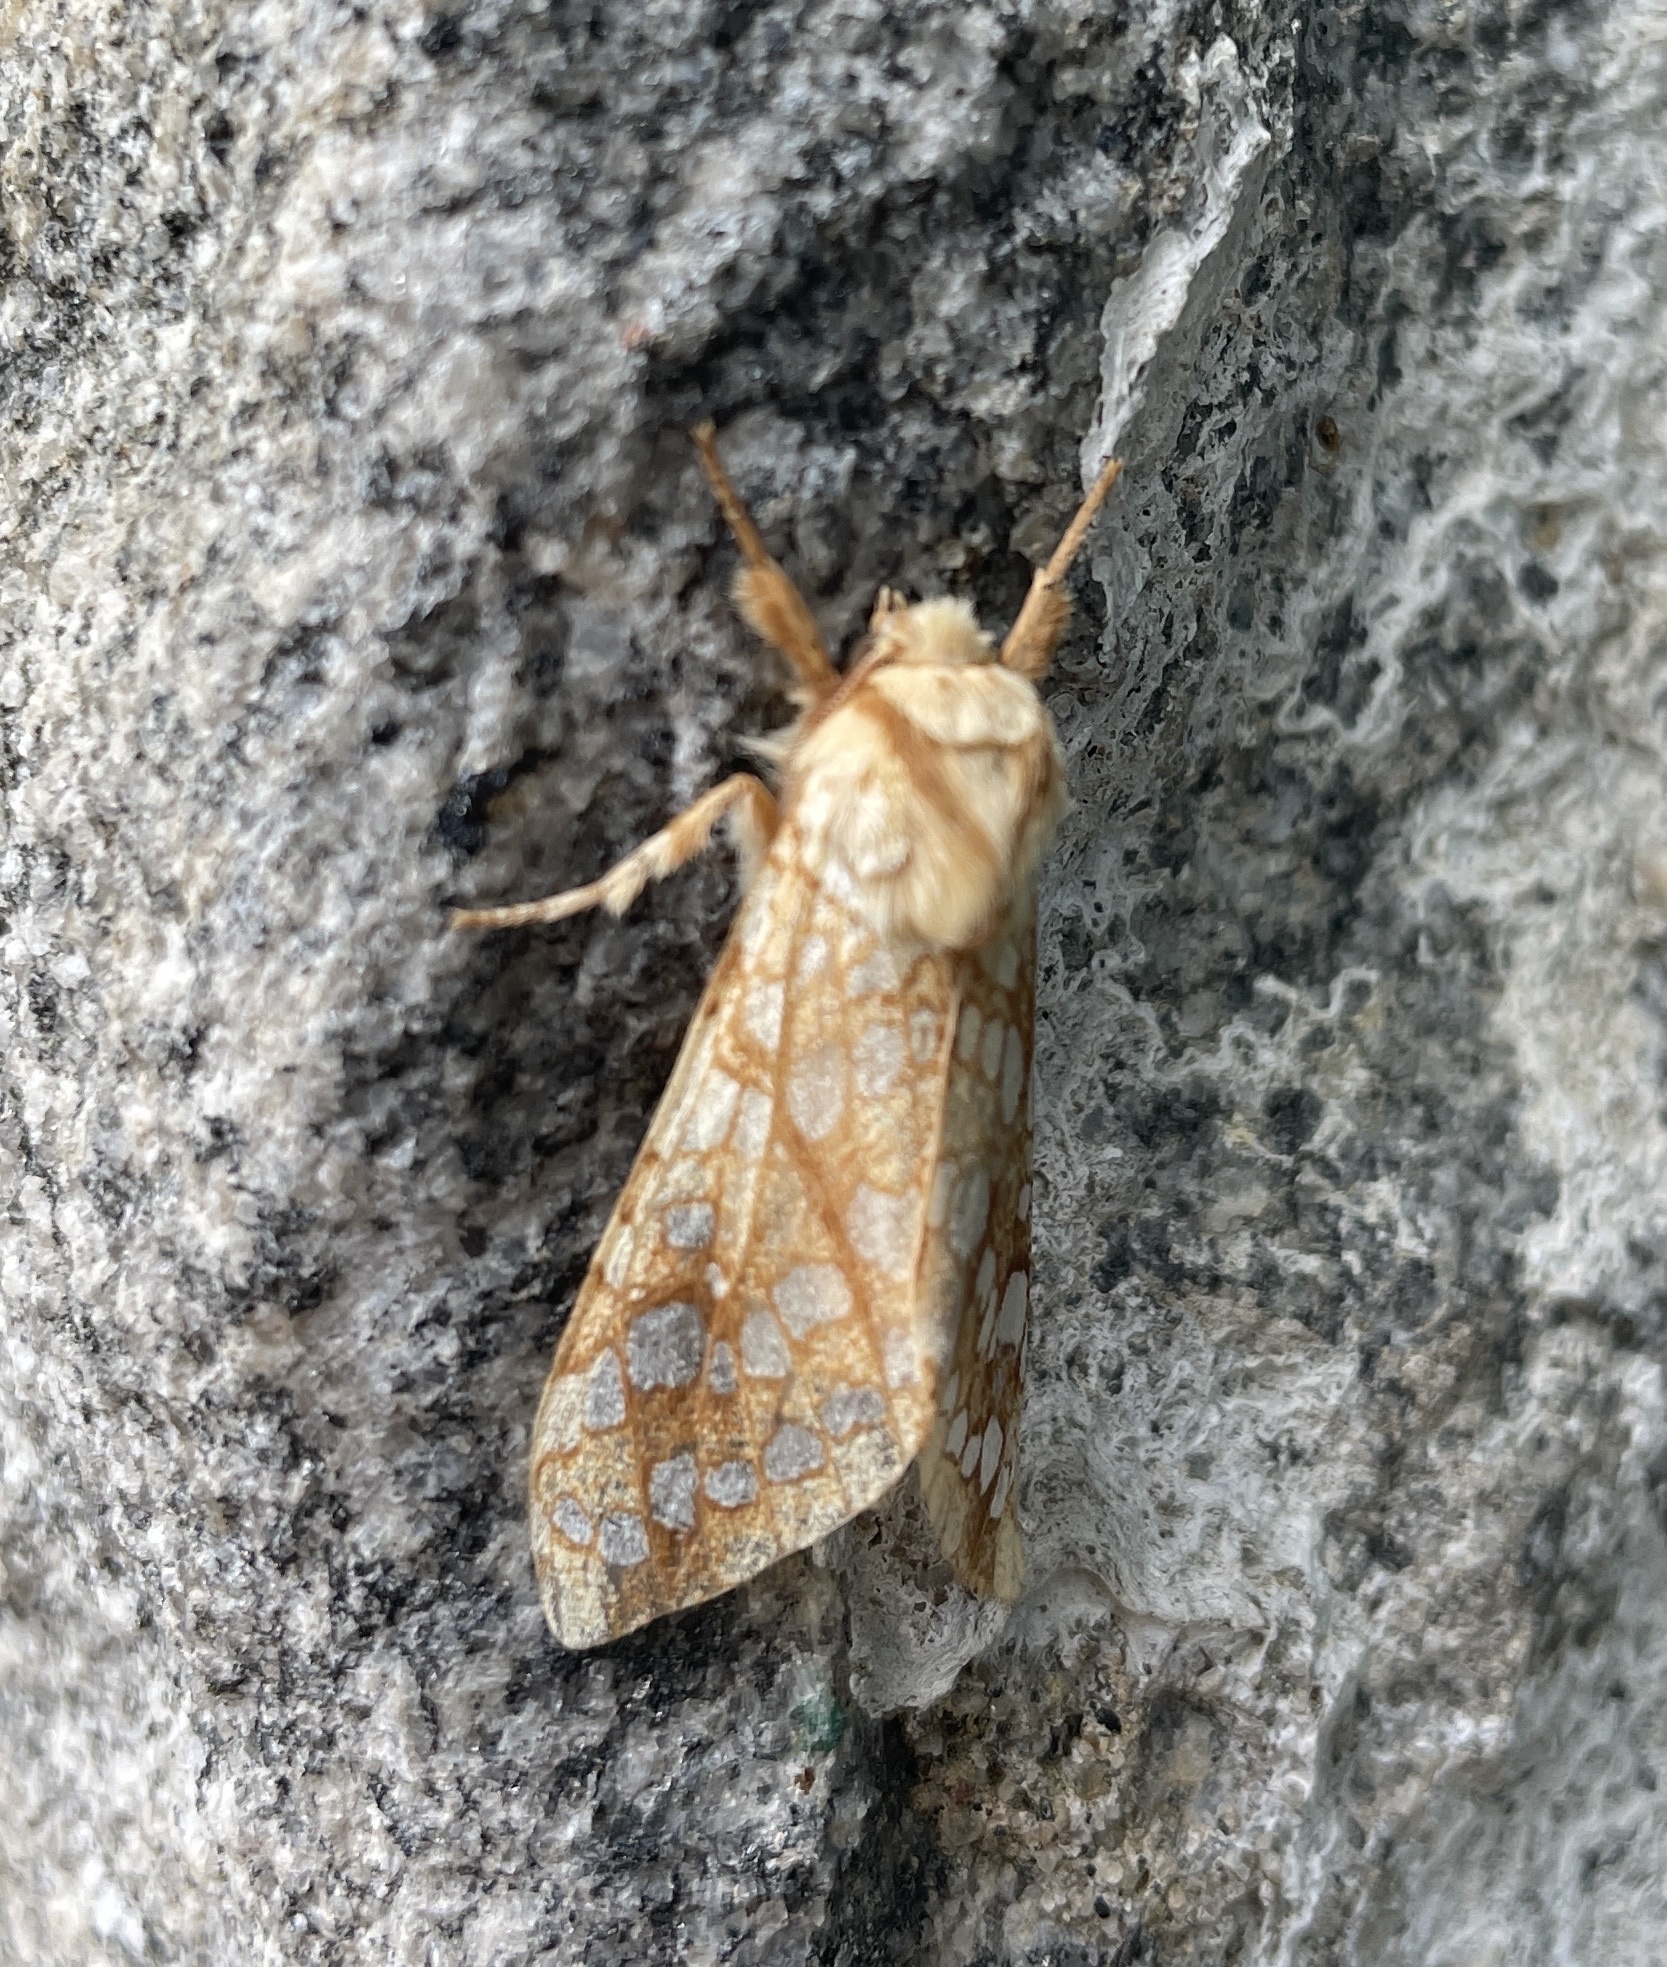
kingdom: Animalia
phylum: Arthropoda
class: Insecta
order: Lepidoptera
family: Erebidae
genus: Lophocampa
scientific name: Lophocampa caryae
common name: Hickory tussock moth
